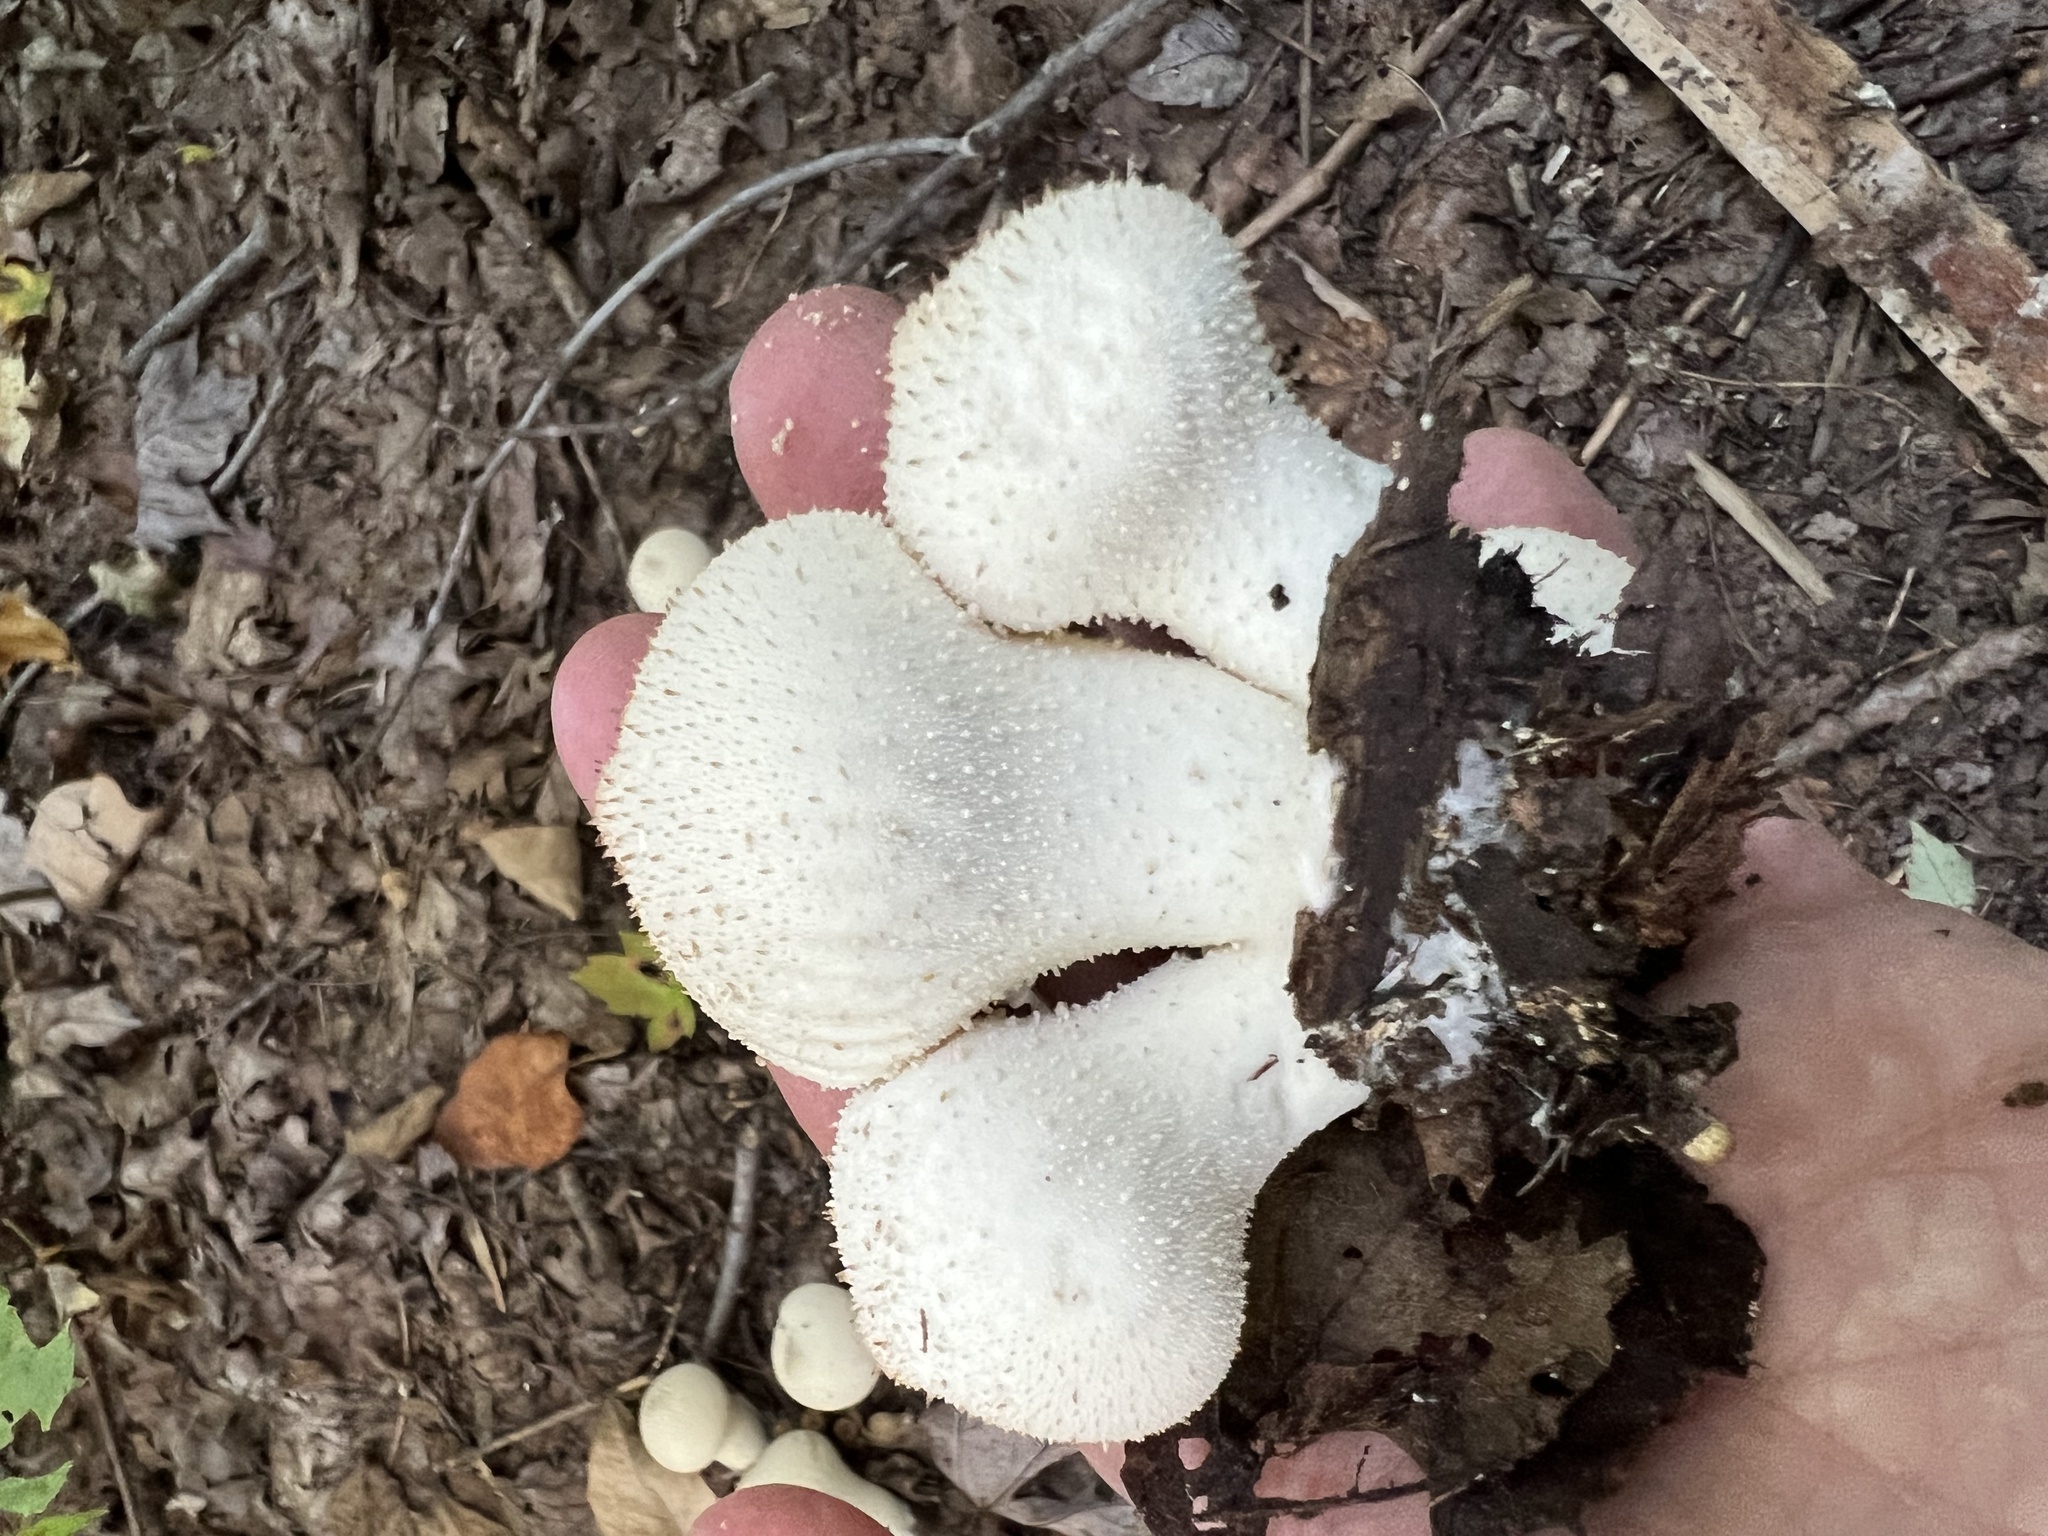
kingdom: Fungi
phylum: Basidiomycota
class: Agaricomycetes
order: Agaricales
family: Lycoperdaceae
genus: Lycoperdon
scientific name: Lycoperdon perlatum
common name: Common puffball
